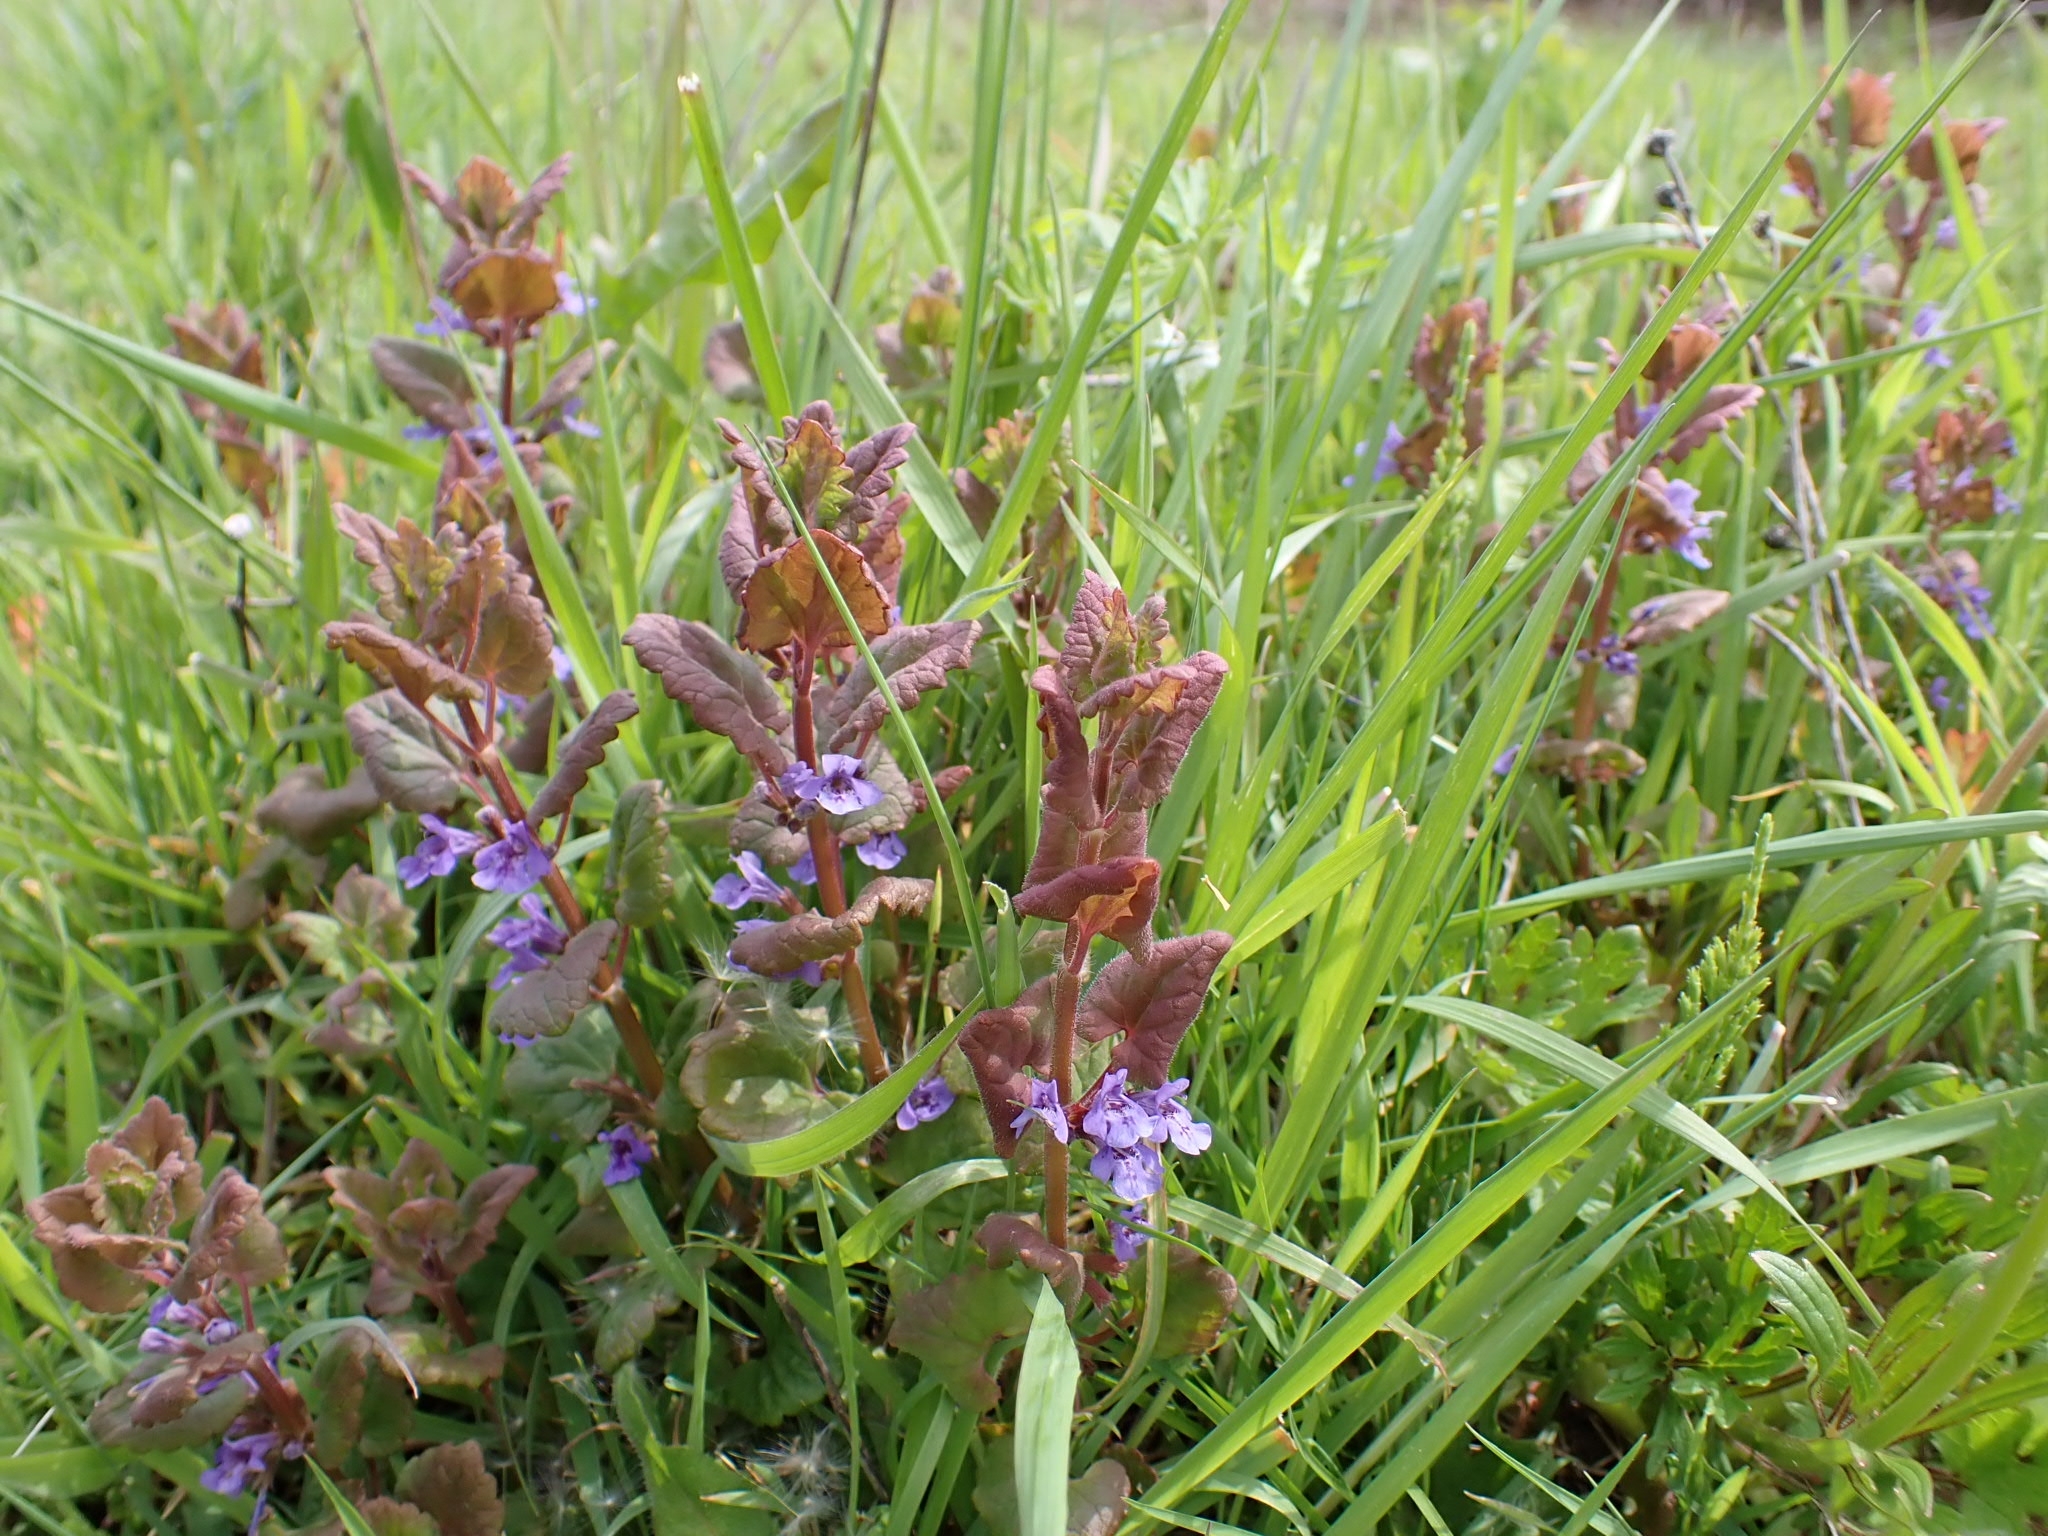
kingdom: Plantae
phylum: Tracheophyta
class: Magnoliopsida
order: Lamiales
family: Lamiaceae
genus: Glechoma
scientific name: Glechoma hederacea
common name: Ground ivy
